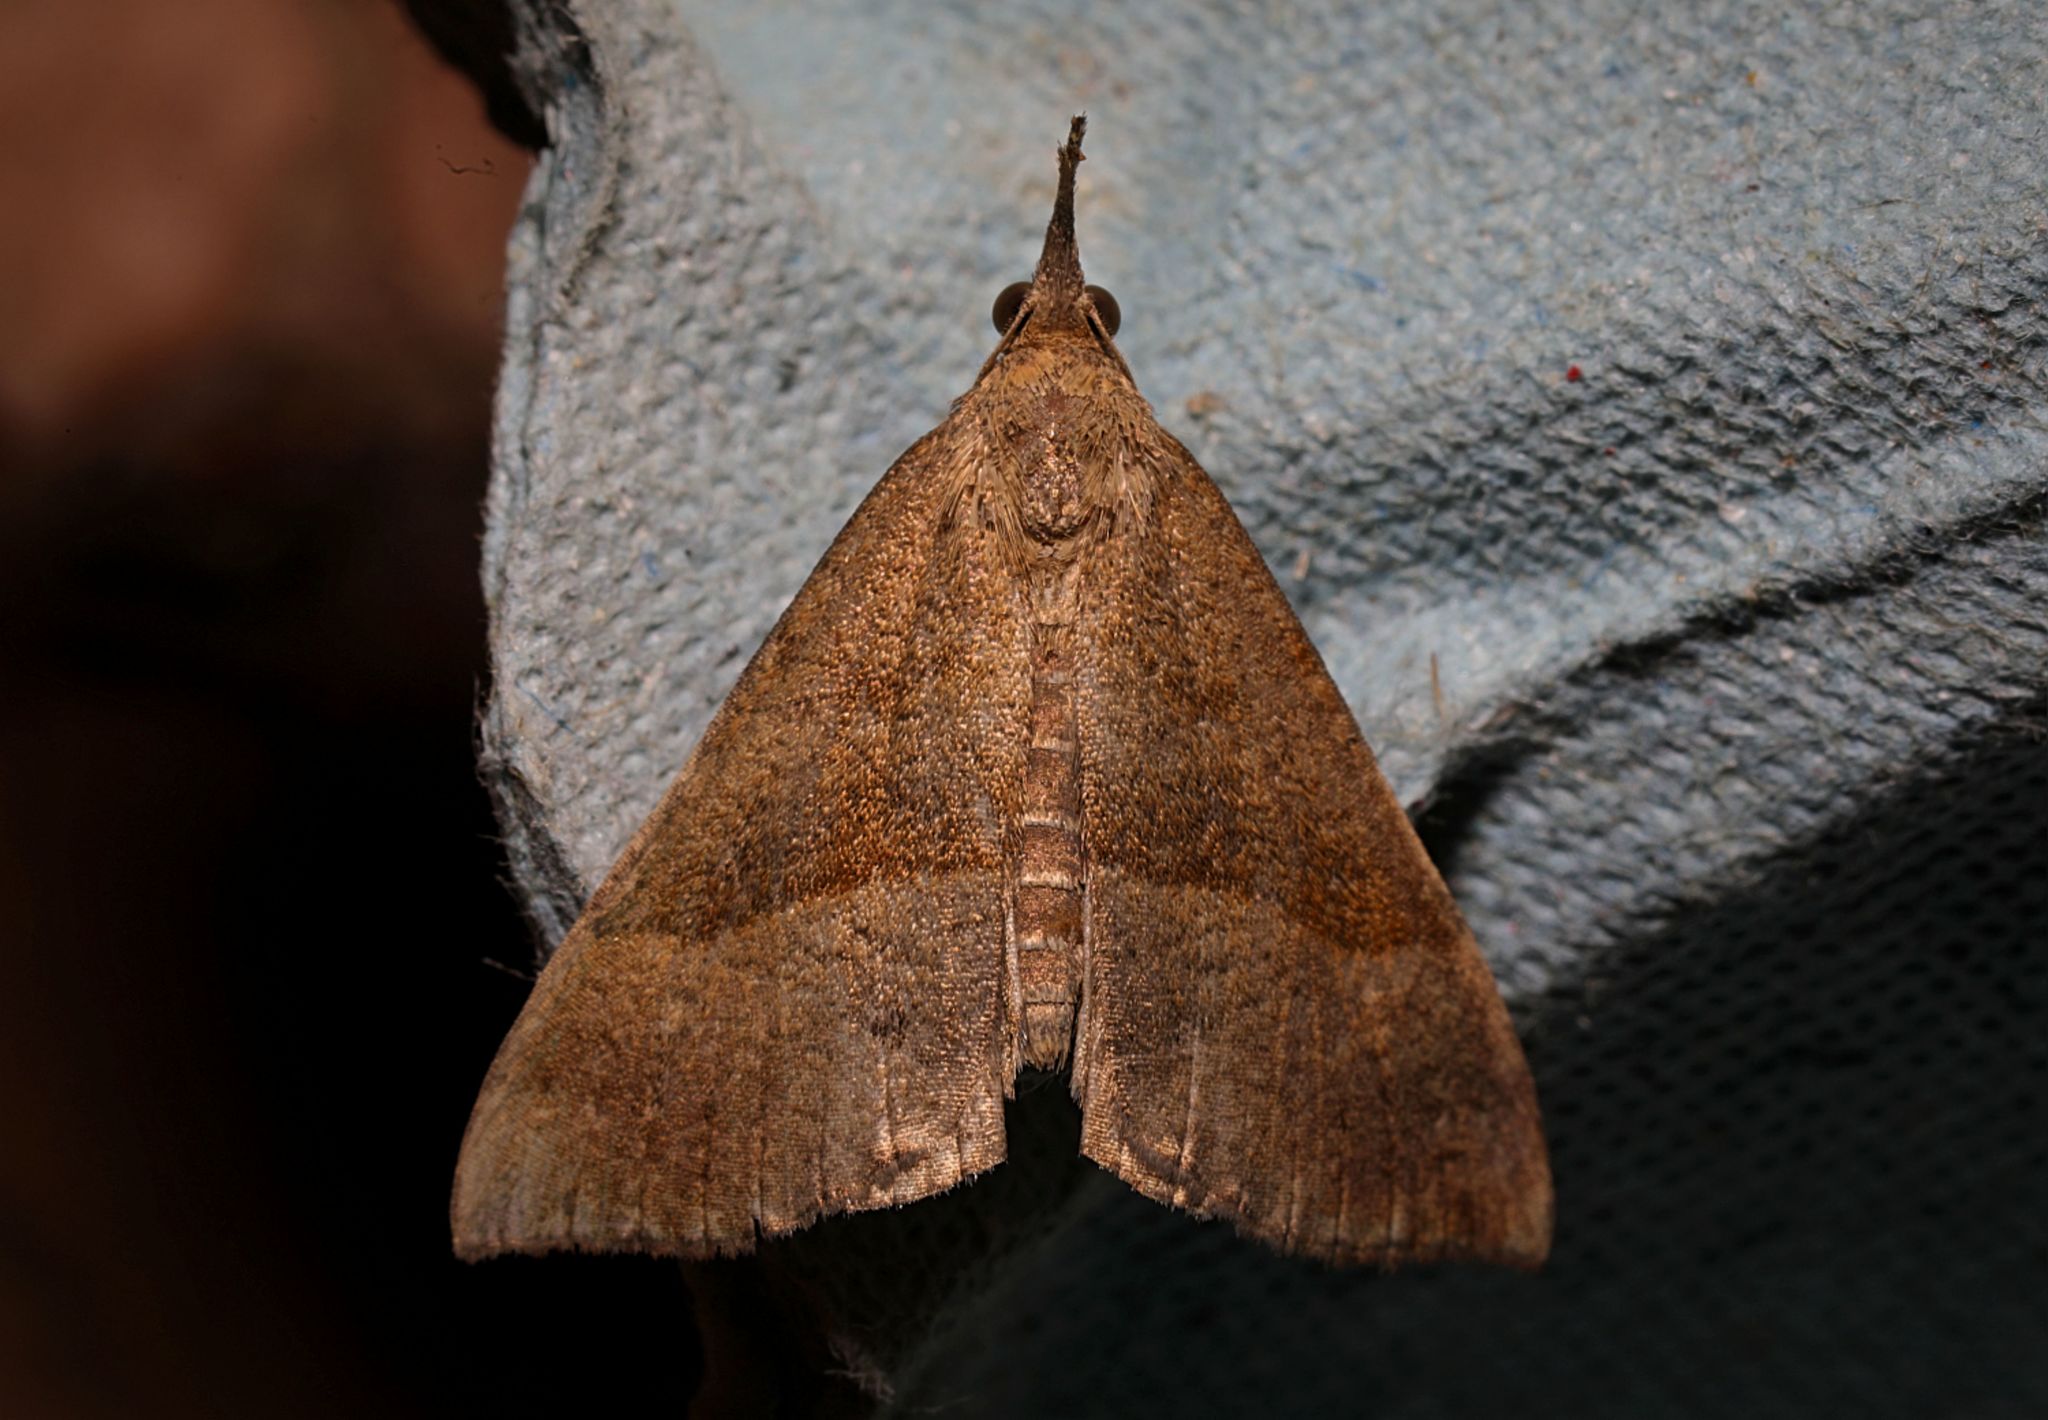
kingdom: Animalia
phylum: Arthropoda
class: Insecta
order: Lepidoptera
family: Erebidae
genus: Hypena
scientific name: Hypena proboscidalis
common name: Snout
